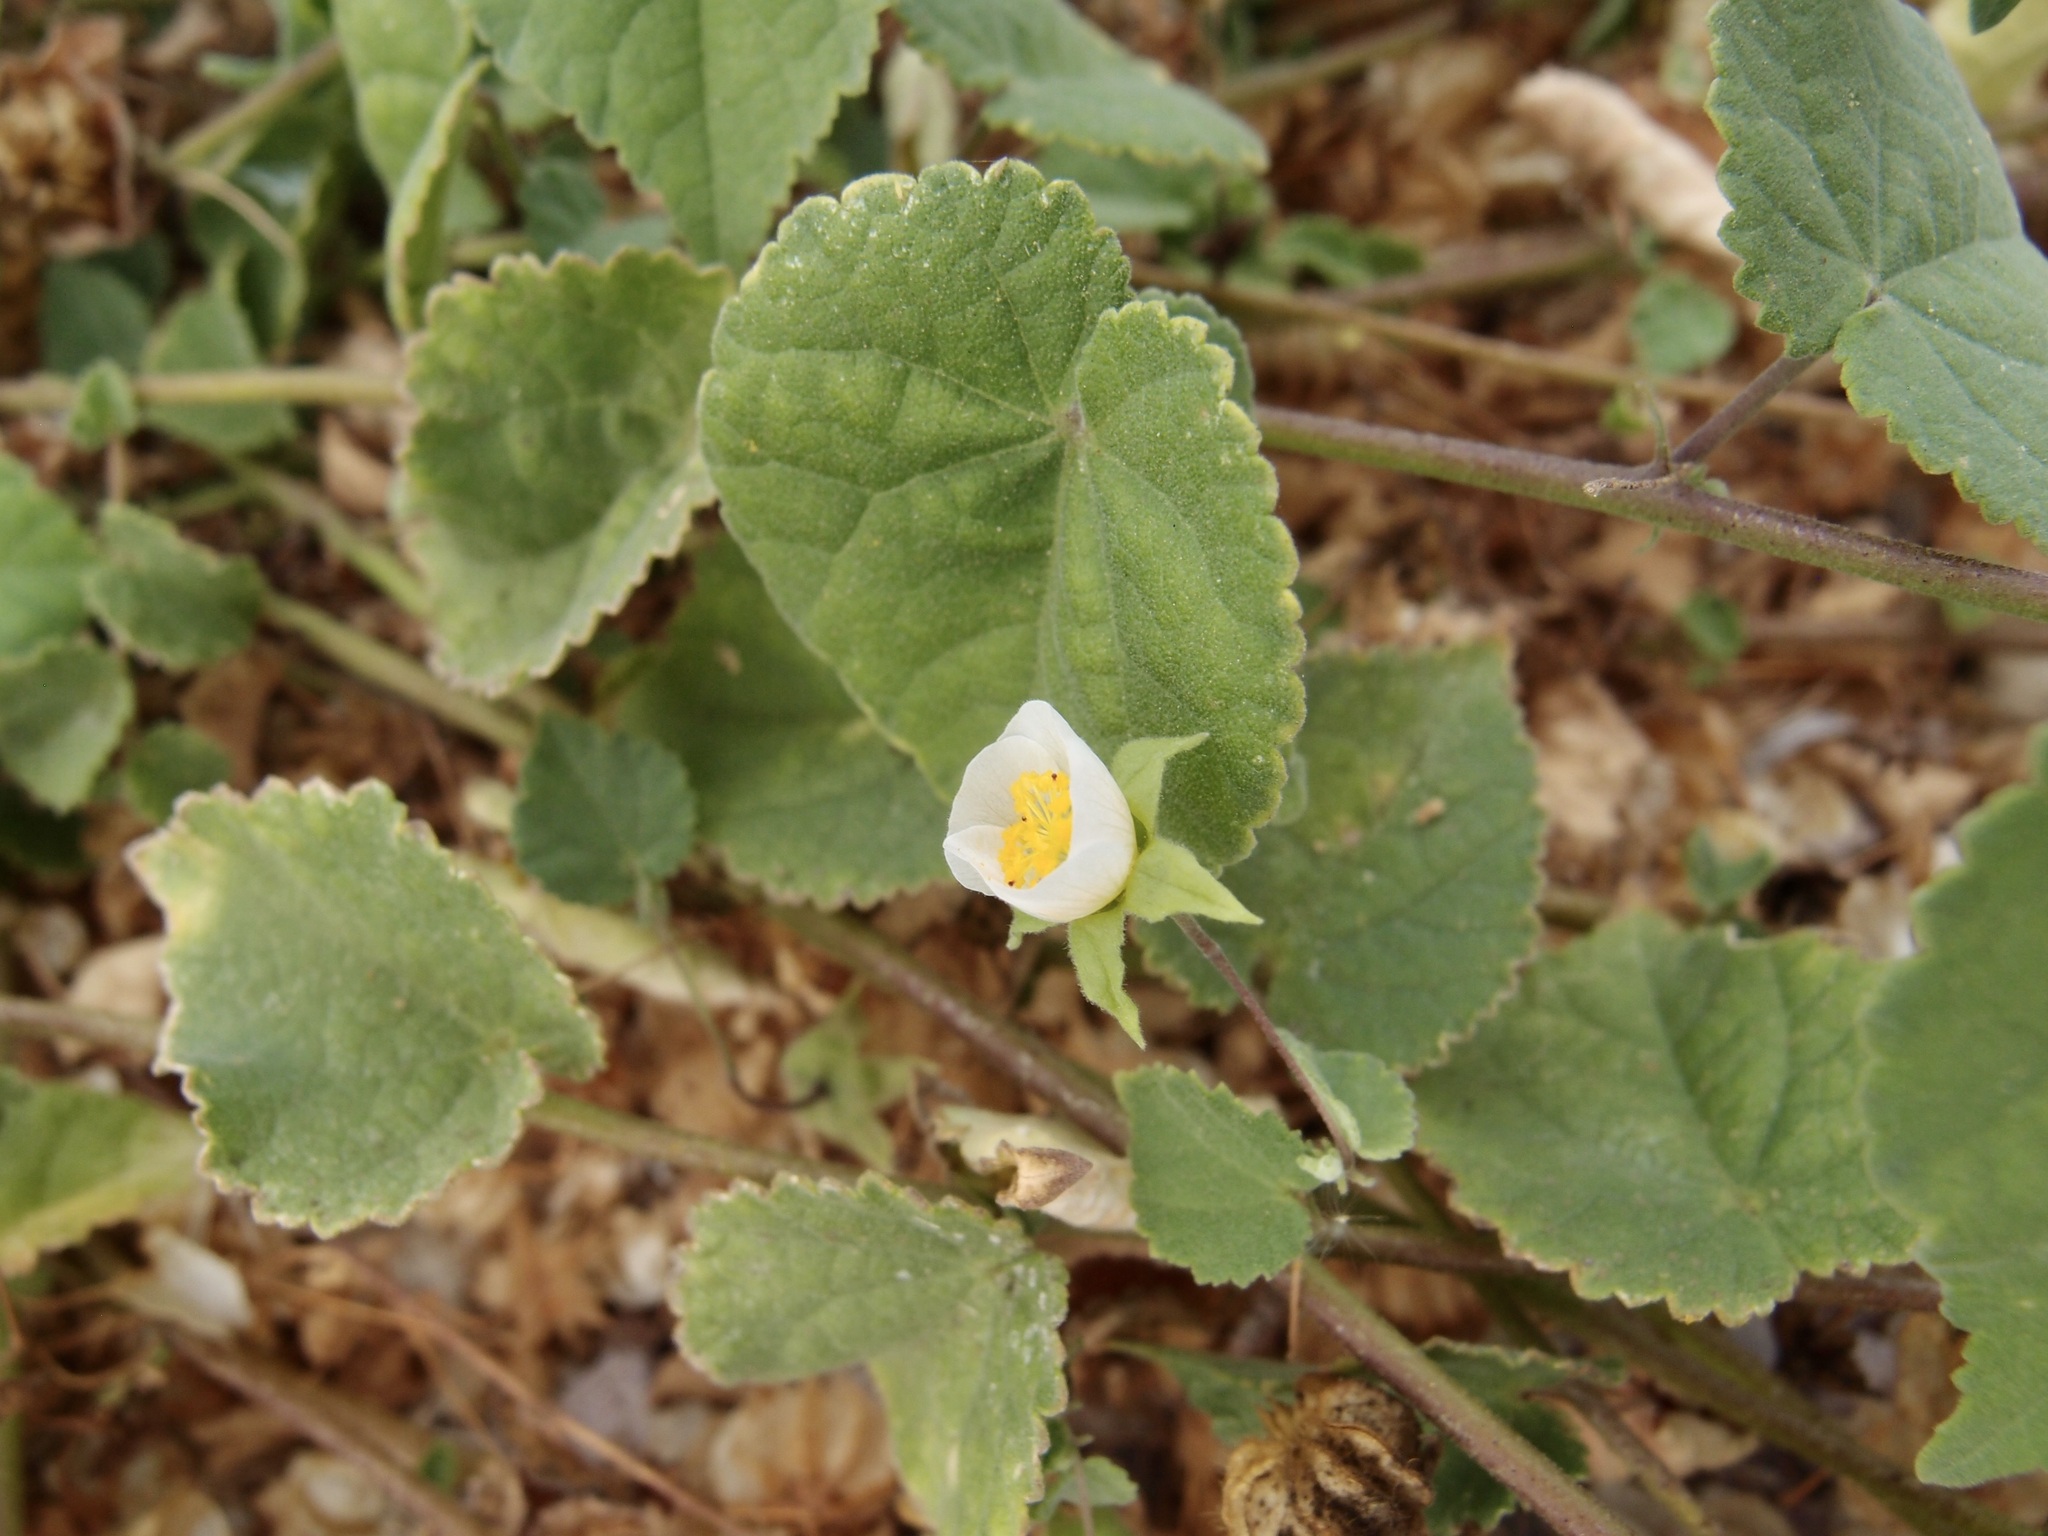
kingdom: Plantae
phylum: Tracheophyta
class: Magnoliopsida
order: Malvales
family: Malvaceae
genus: Herissantia
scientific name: Herissantia crispa
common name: Bladdermallow
